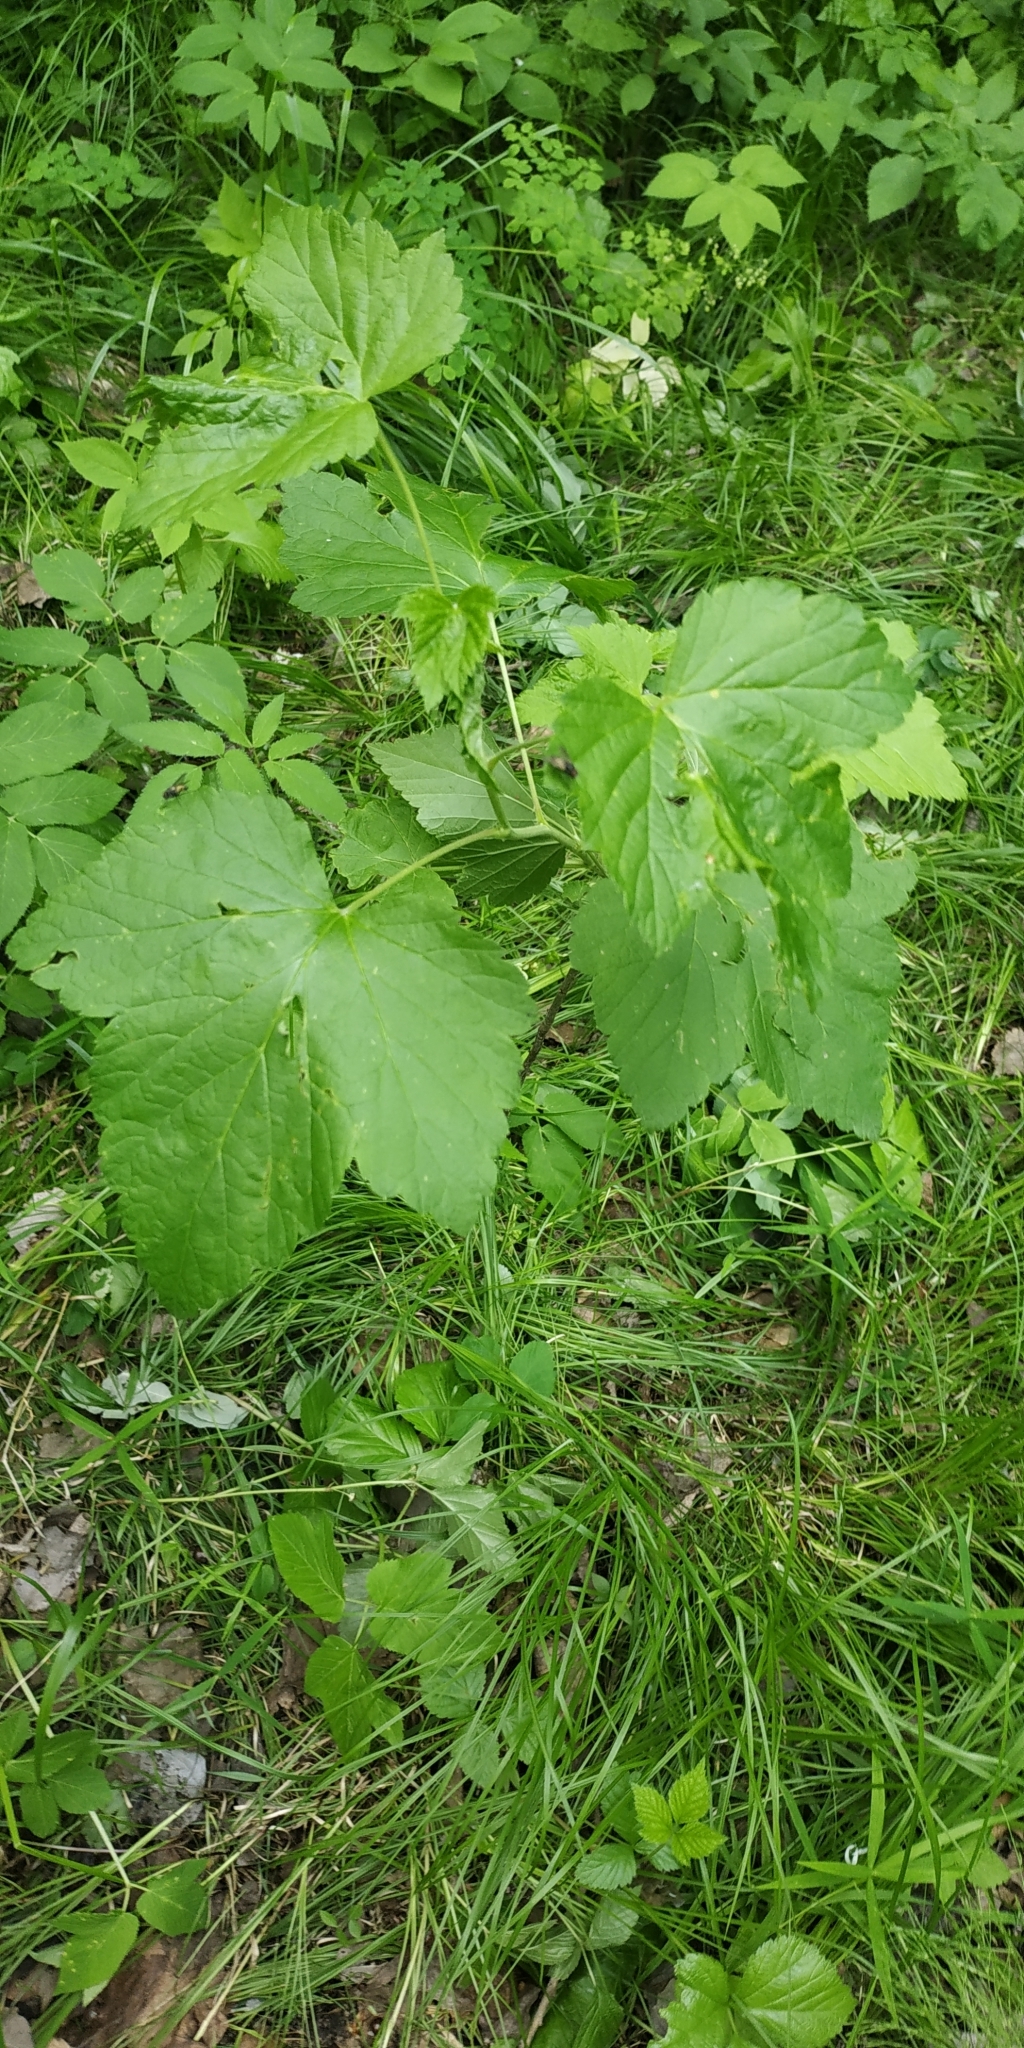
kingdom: Plantae
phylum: Tracheophyta
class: Magnoliopsida
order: Saxifragales
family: Grossulariaceae
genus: Ribes
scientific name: Ribes nigrum
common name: Black currant
